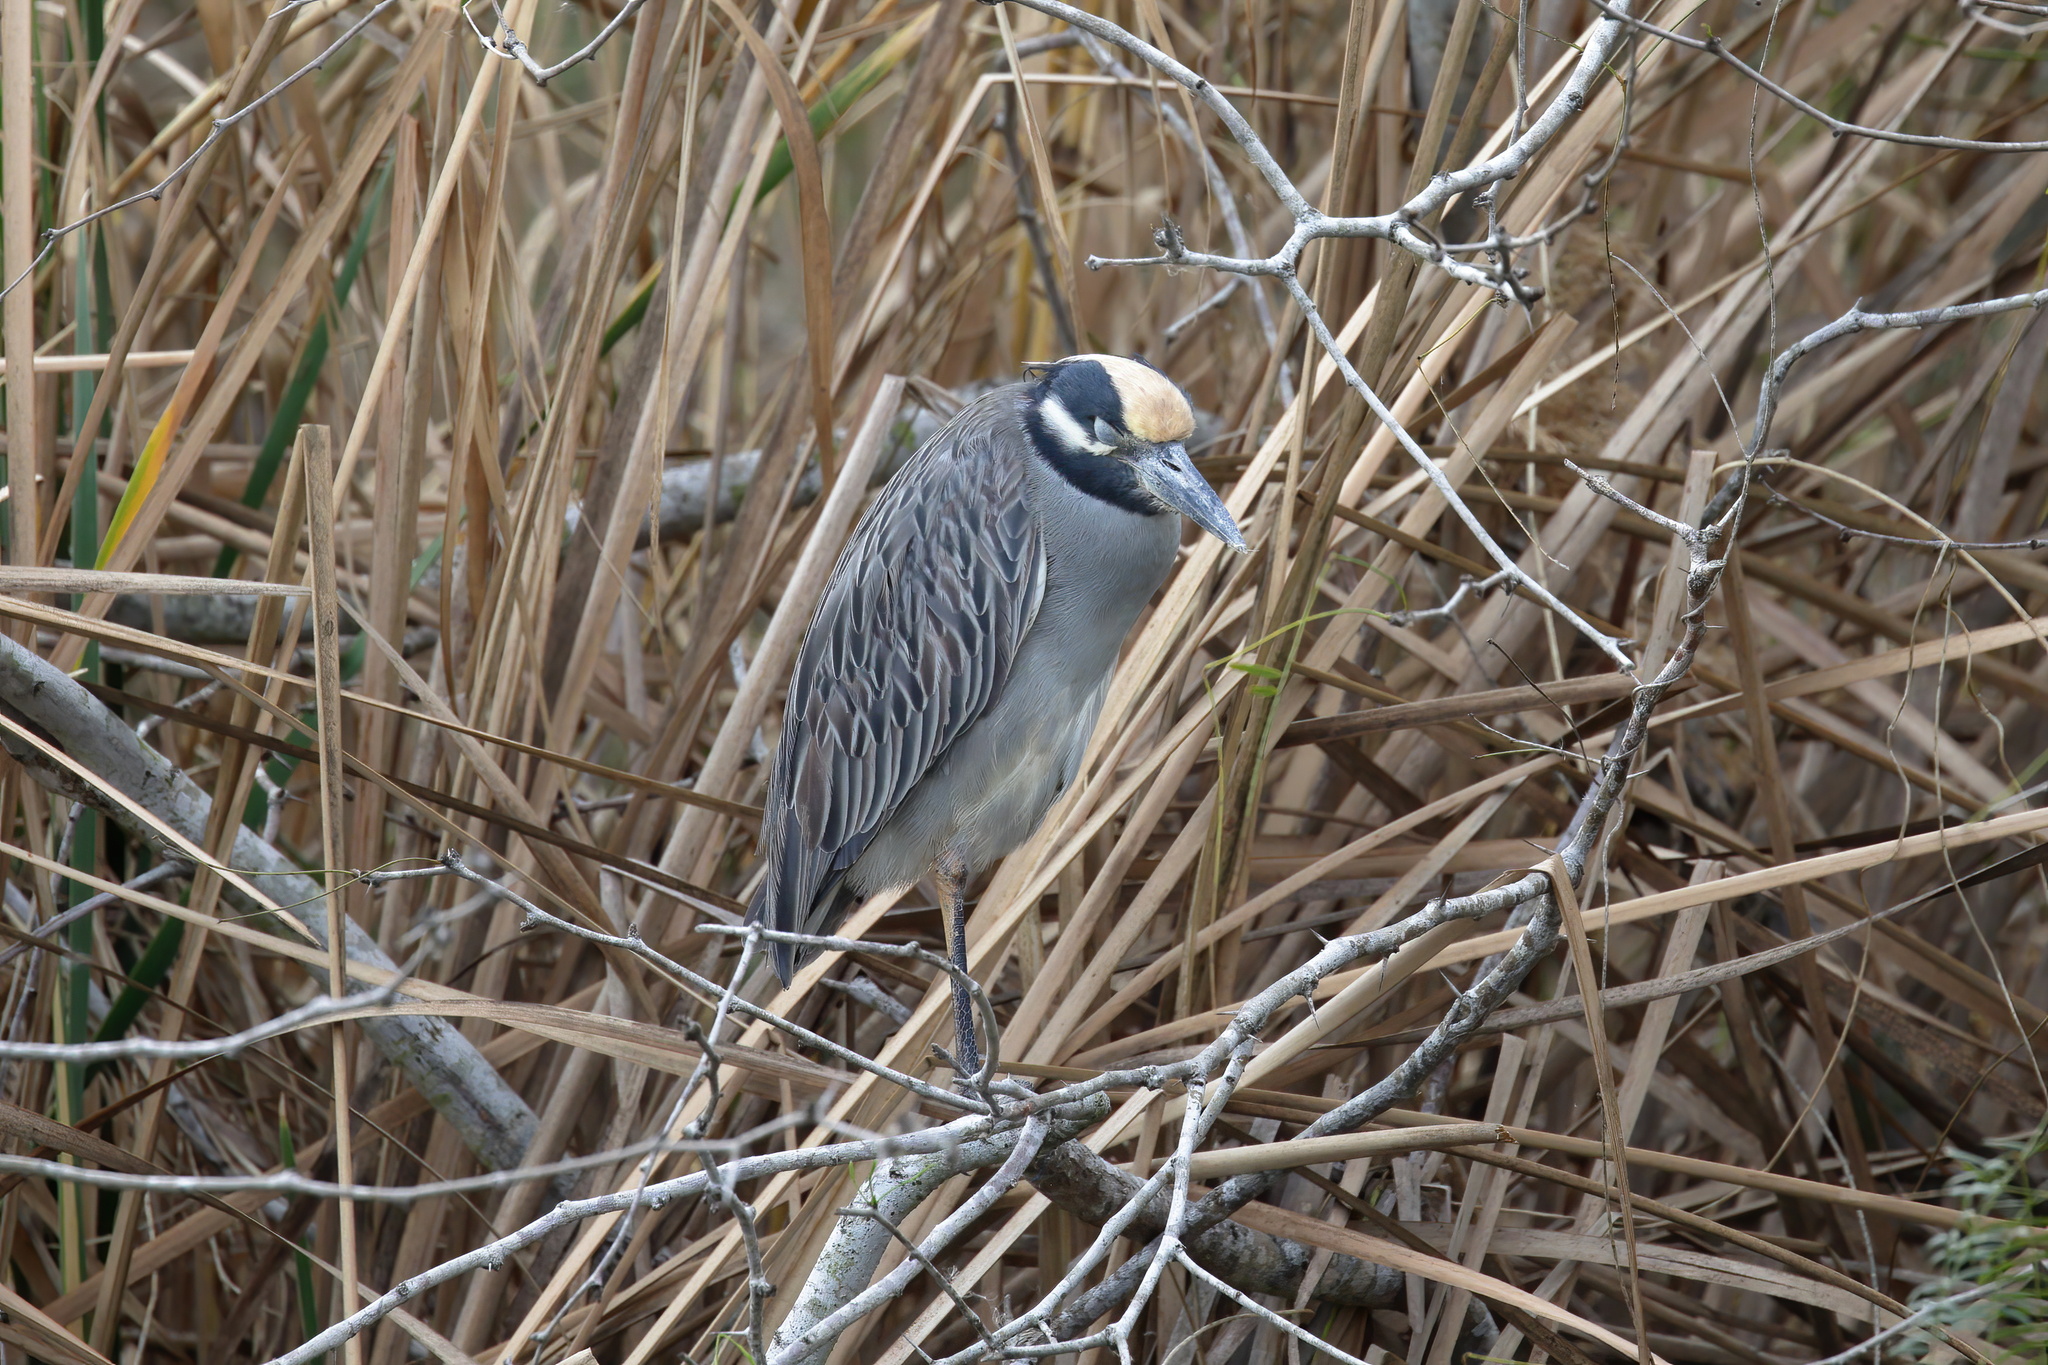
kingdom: Animalia
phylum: Chordata
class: Aves
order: Pelecaniformes
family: Ardeidae
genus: Nyctanassa
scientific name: Nyctanassa violacea
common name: Yellow-crowned night heron
